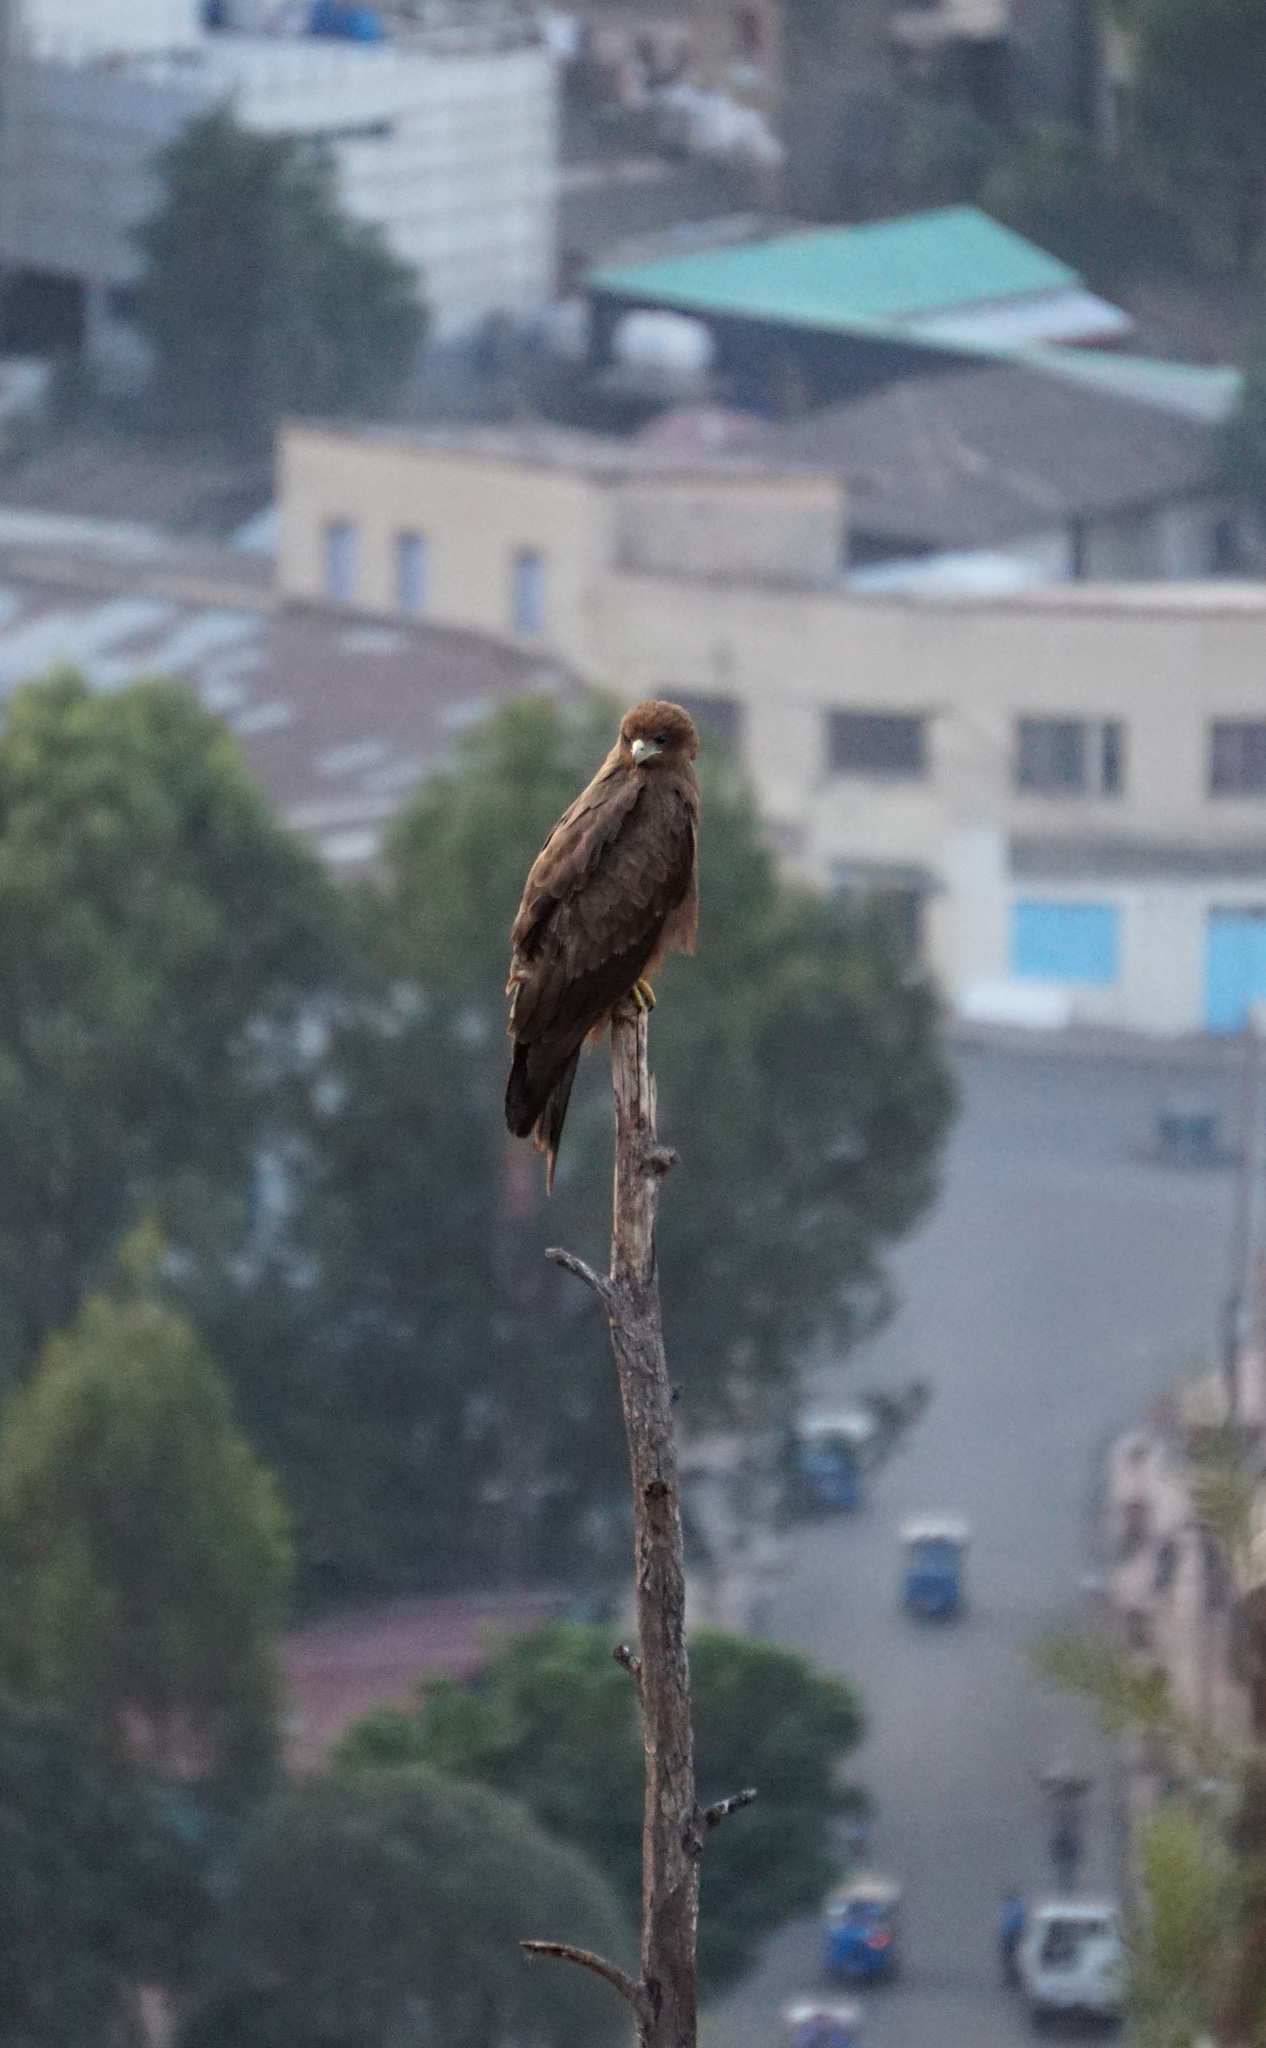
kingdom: Animalia
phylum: Chordata
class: Aves
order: Accipitriformes
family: Accipitridae
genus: Milvus
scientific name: Milvus migrans
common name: Black kite
